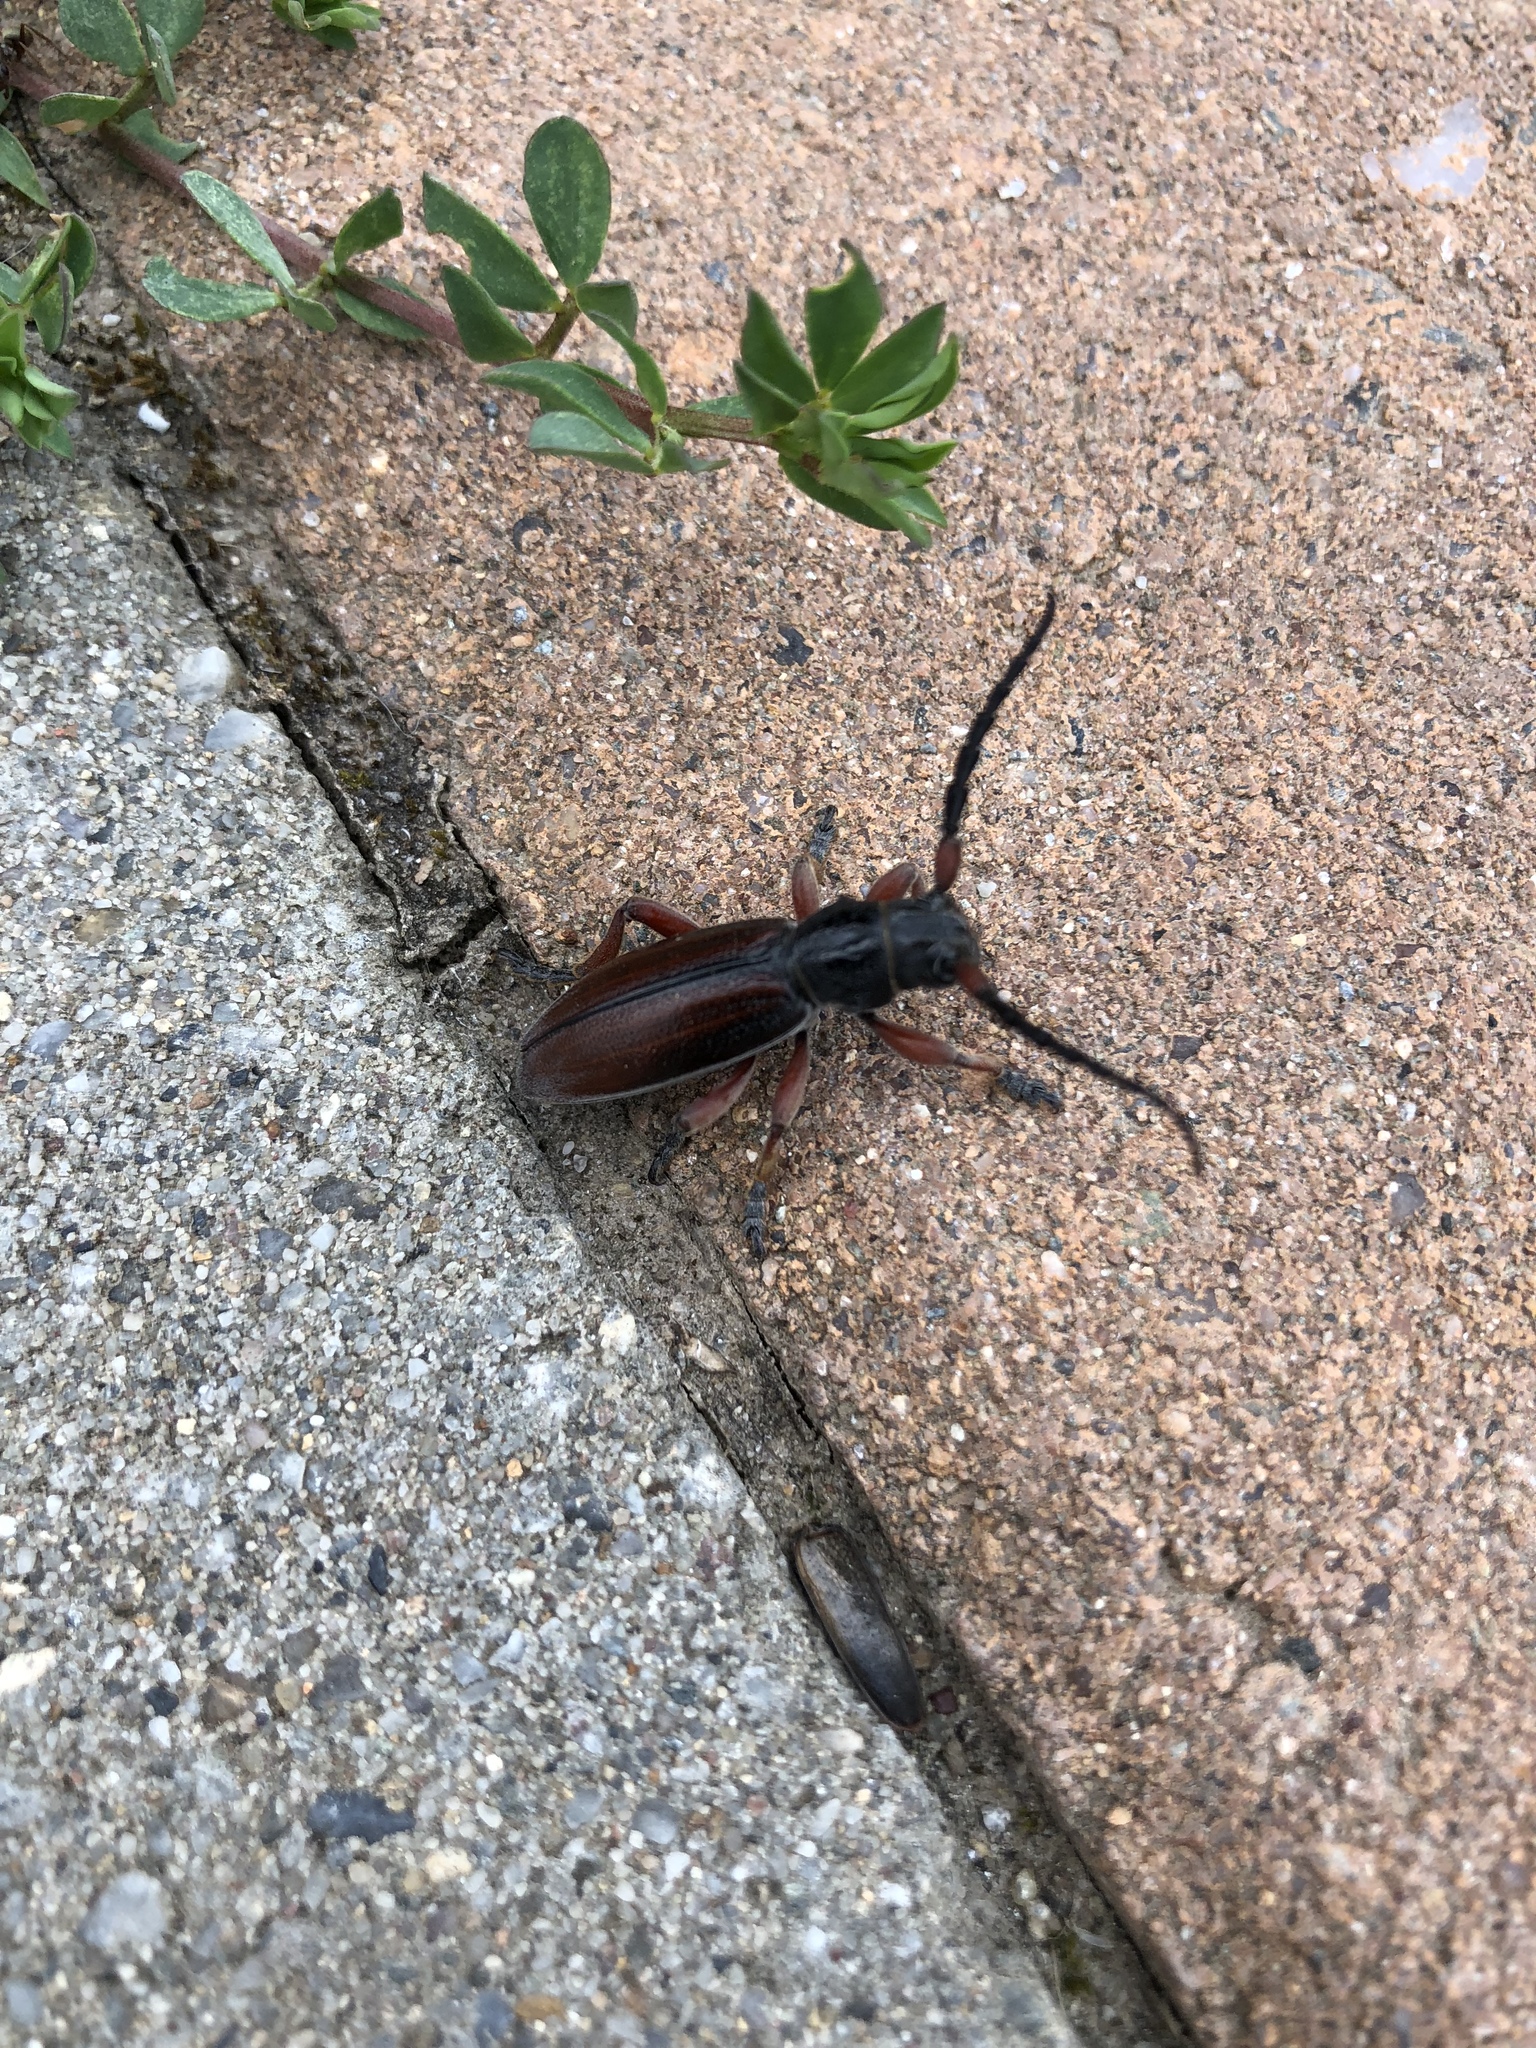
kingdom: Animalia
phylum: Arthropoda
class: Insecta
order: Coleoptera
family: Cerambycidae
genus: Dorcadion
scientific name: Dorcadion fulvum
